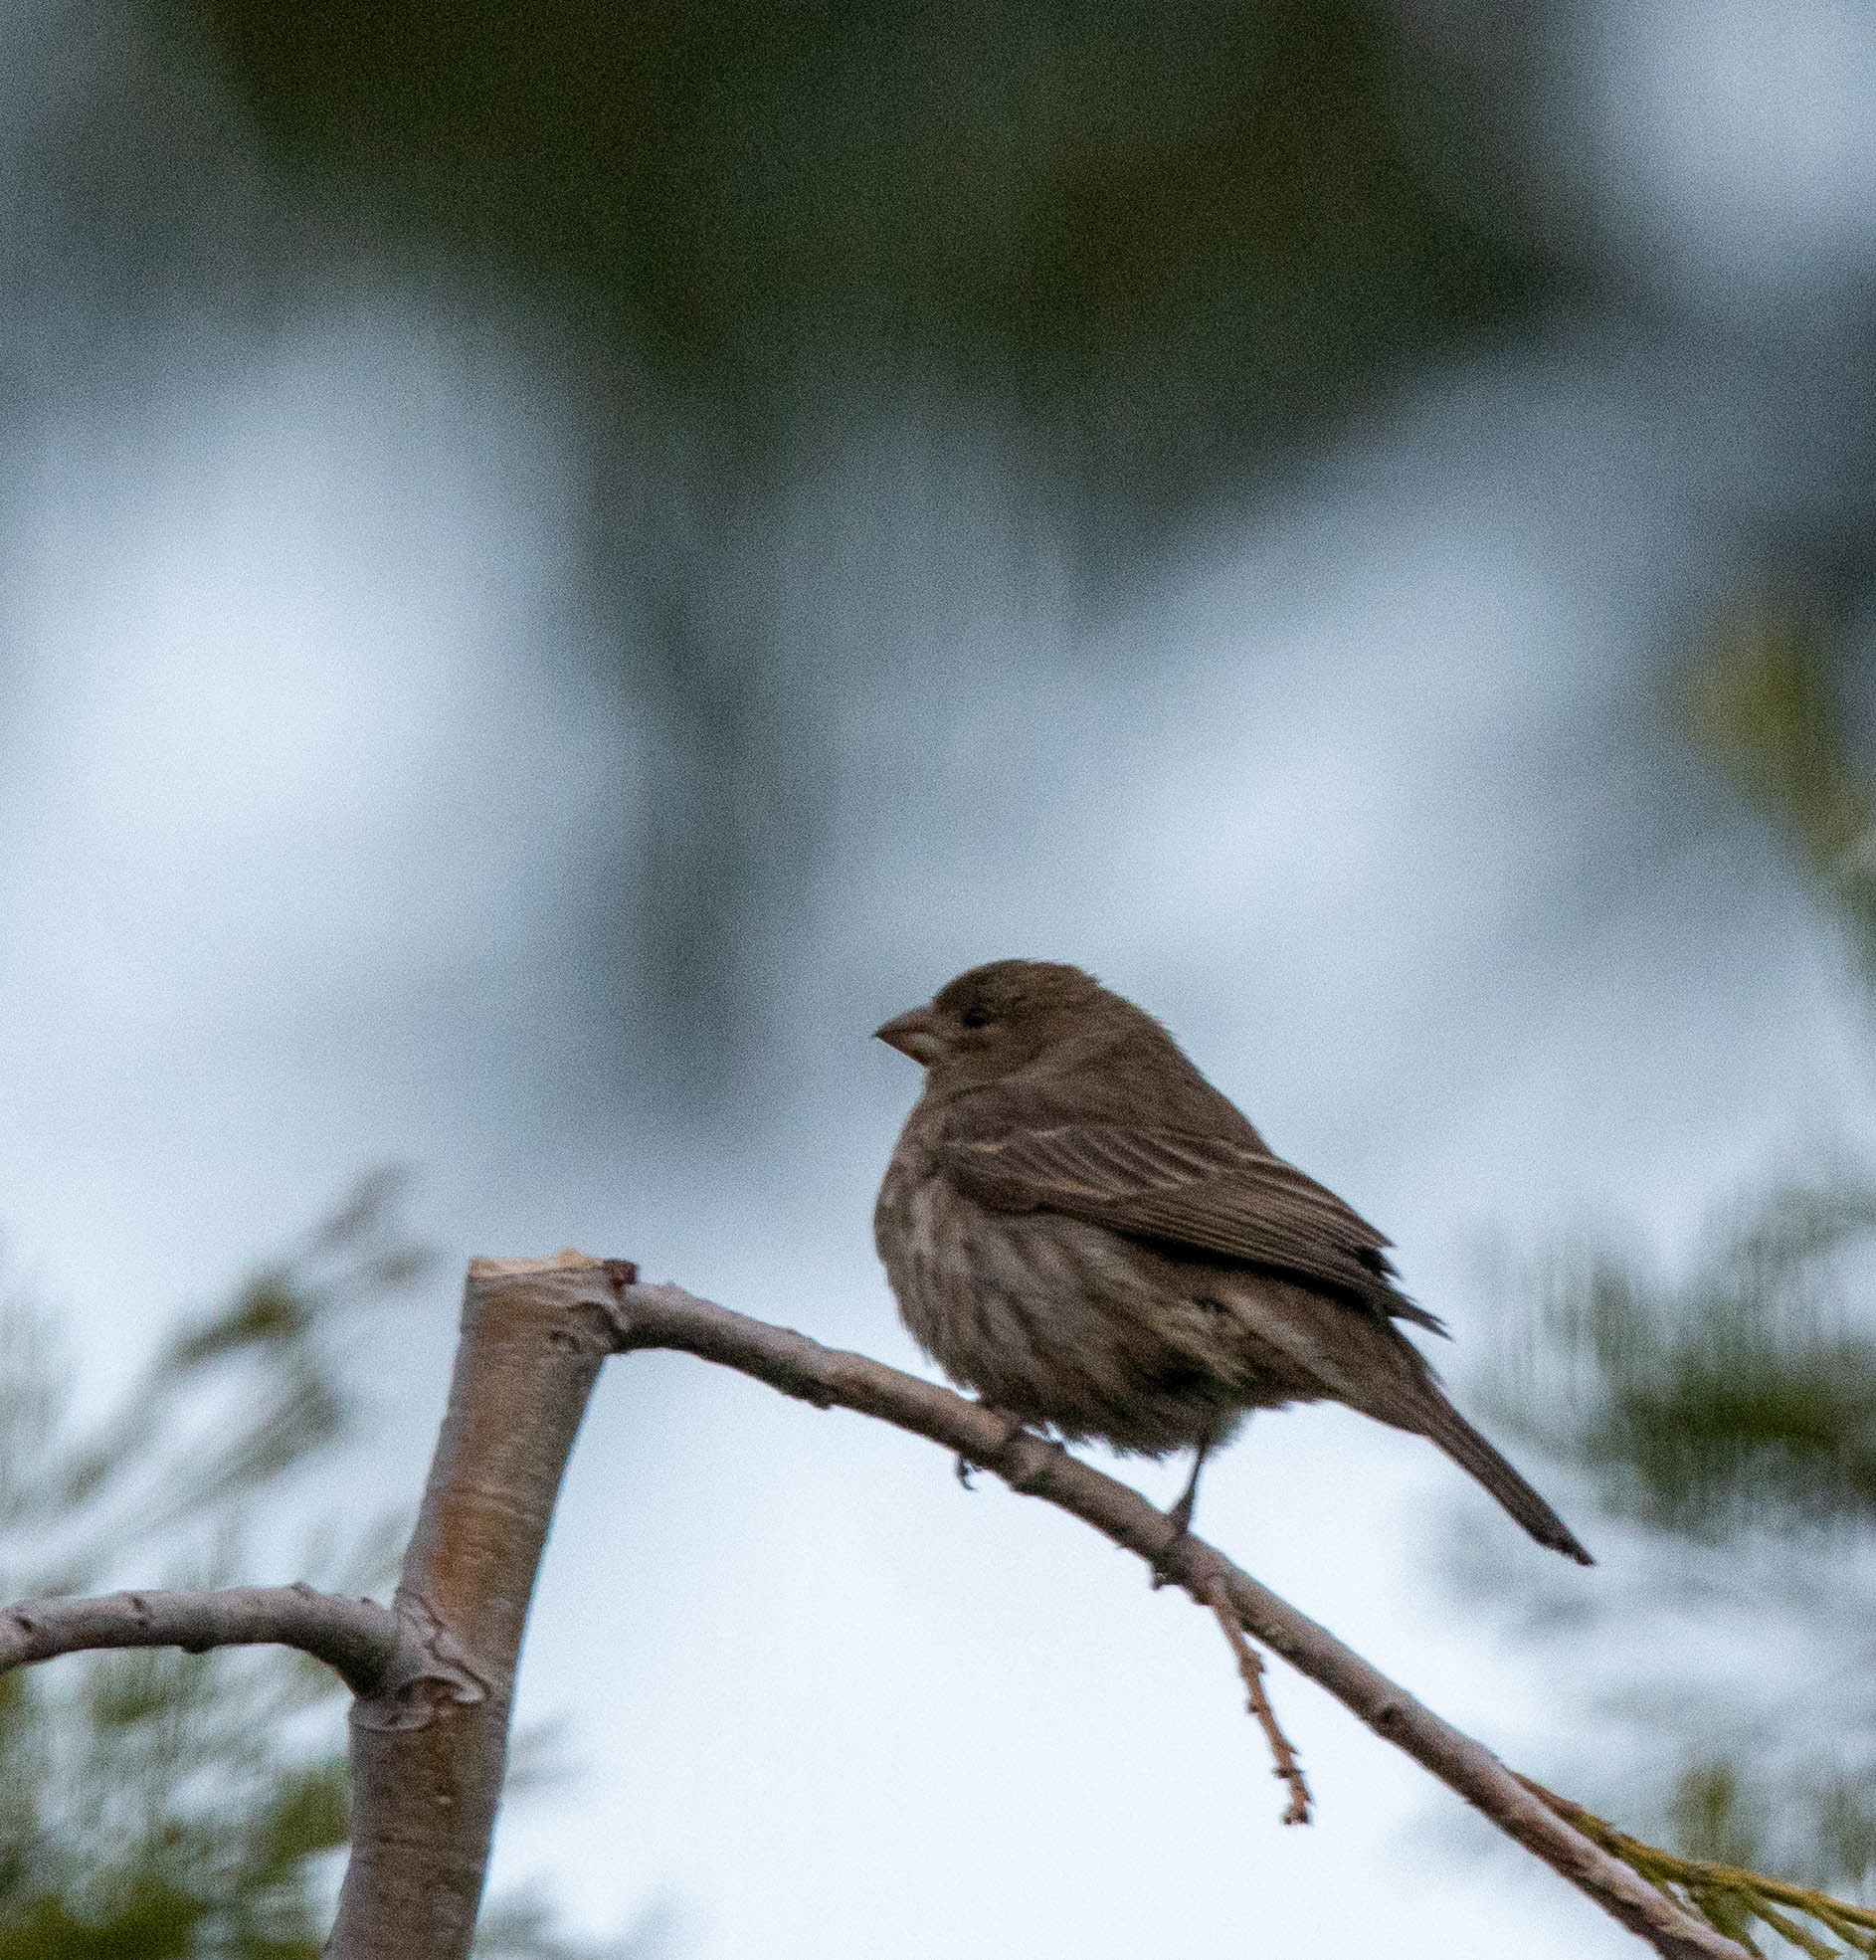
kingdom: Animalia
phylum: Chordata
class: Aves
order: Passeriformes
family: Fringillidae
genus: Haemorhous
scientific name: Haemorhous mexicanus
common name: House finch
